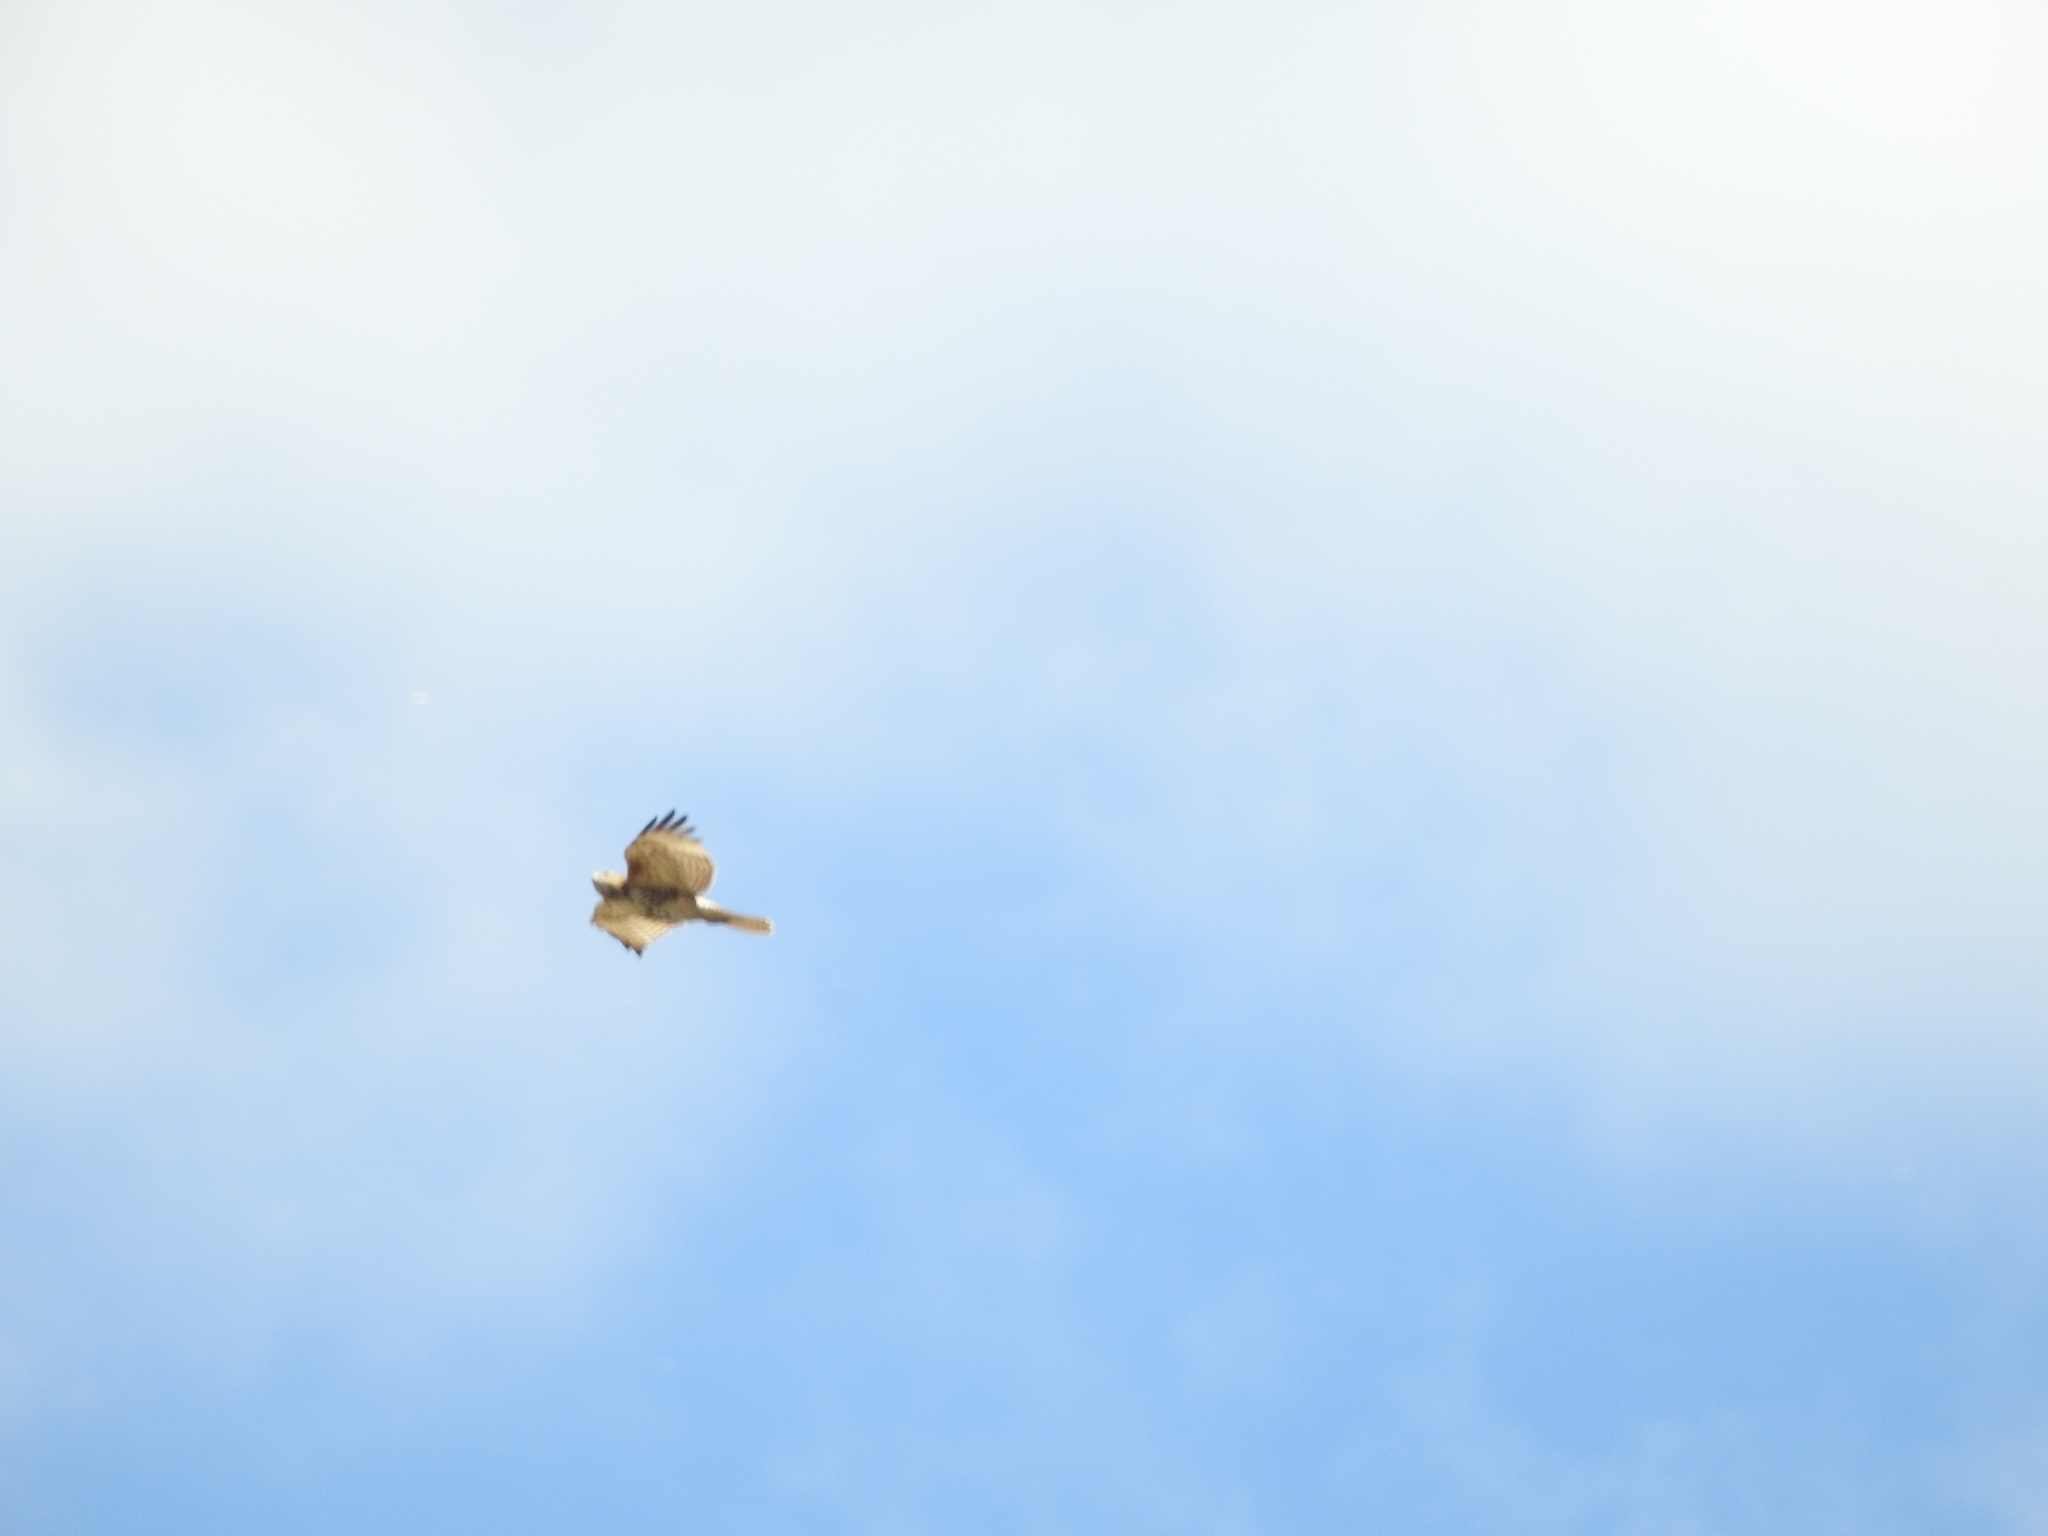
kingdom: Animalia
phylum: Chordata
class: Aves
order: Accipitriformes
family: Accipitridae
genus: Buteo
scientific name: Buteo jamaicensis
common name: Red-tailed hawk
